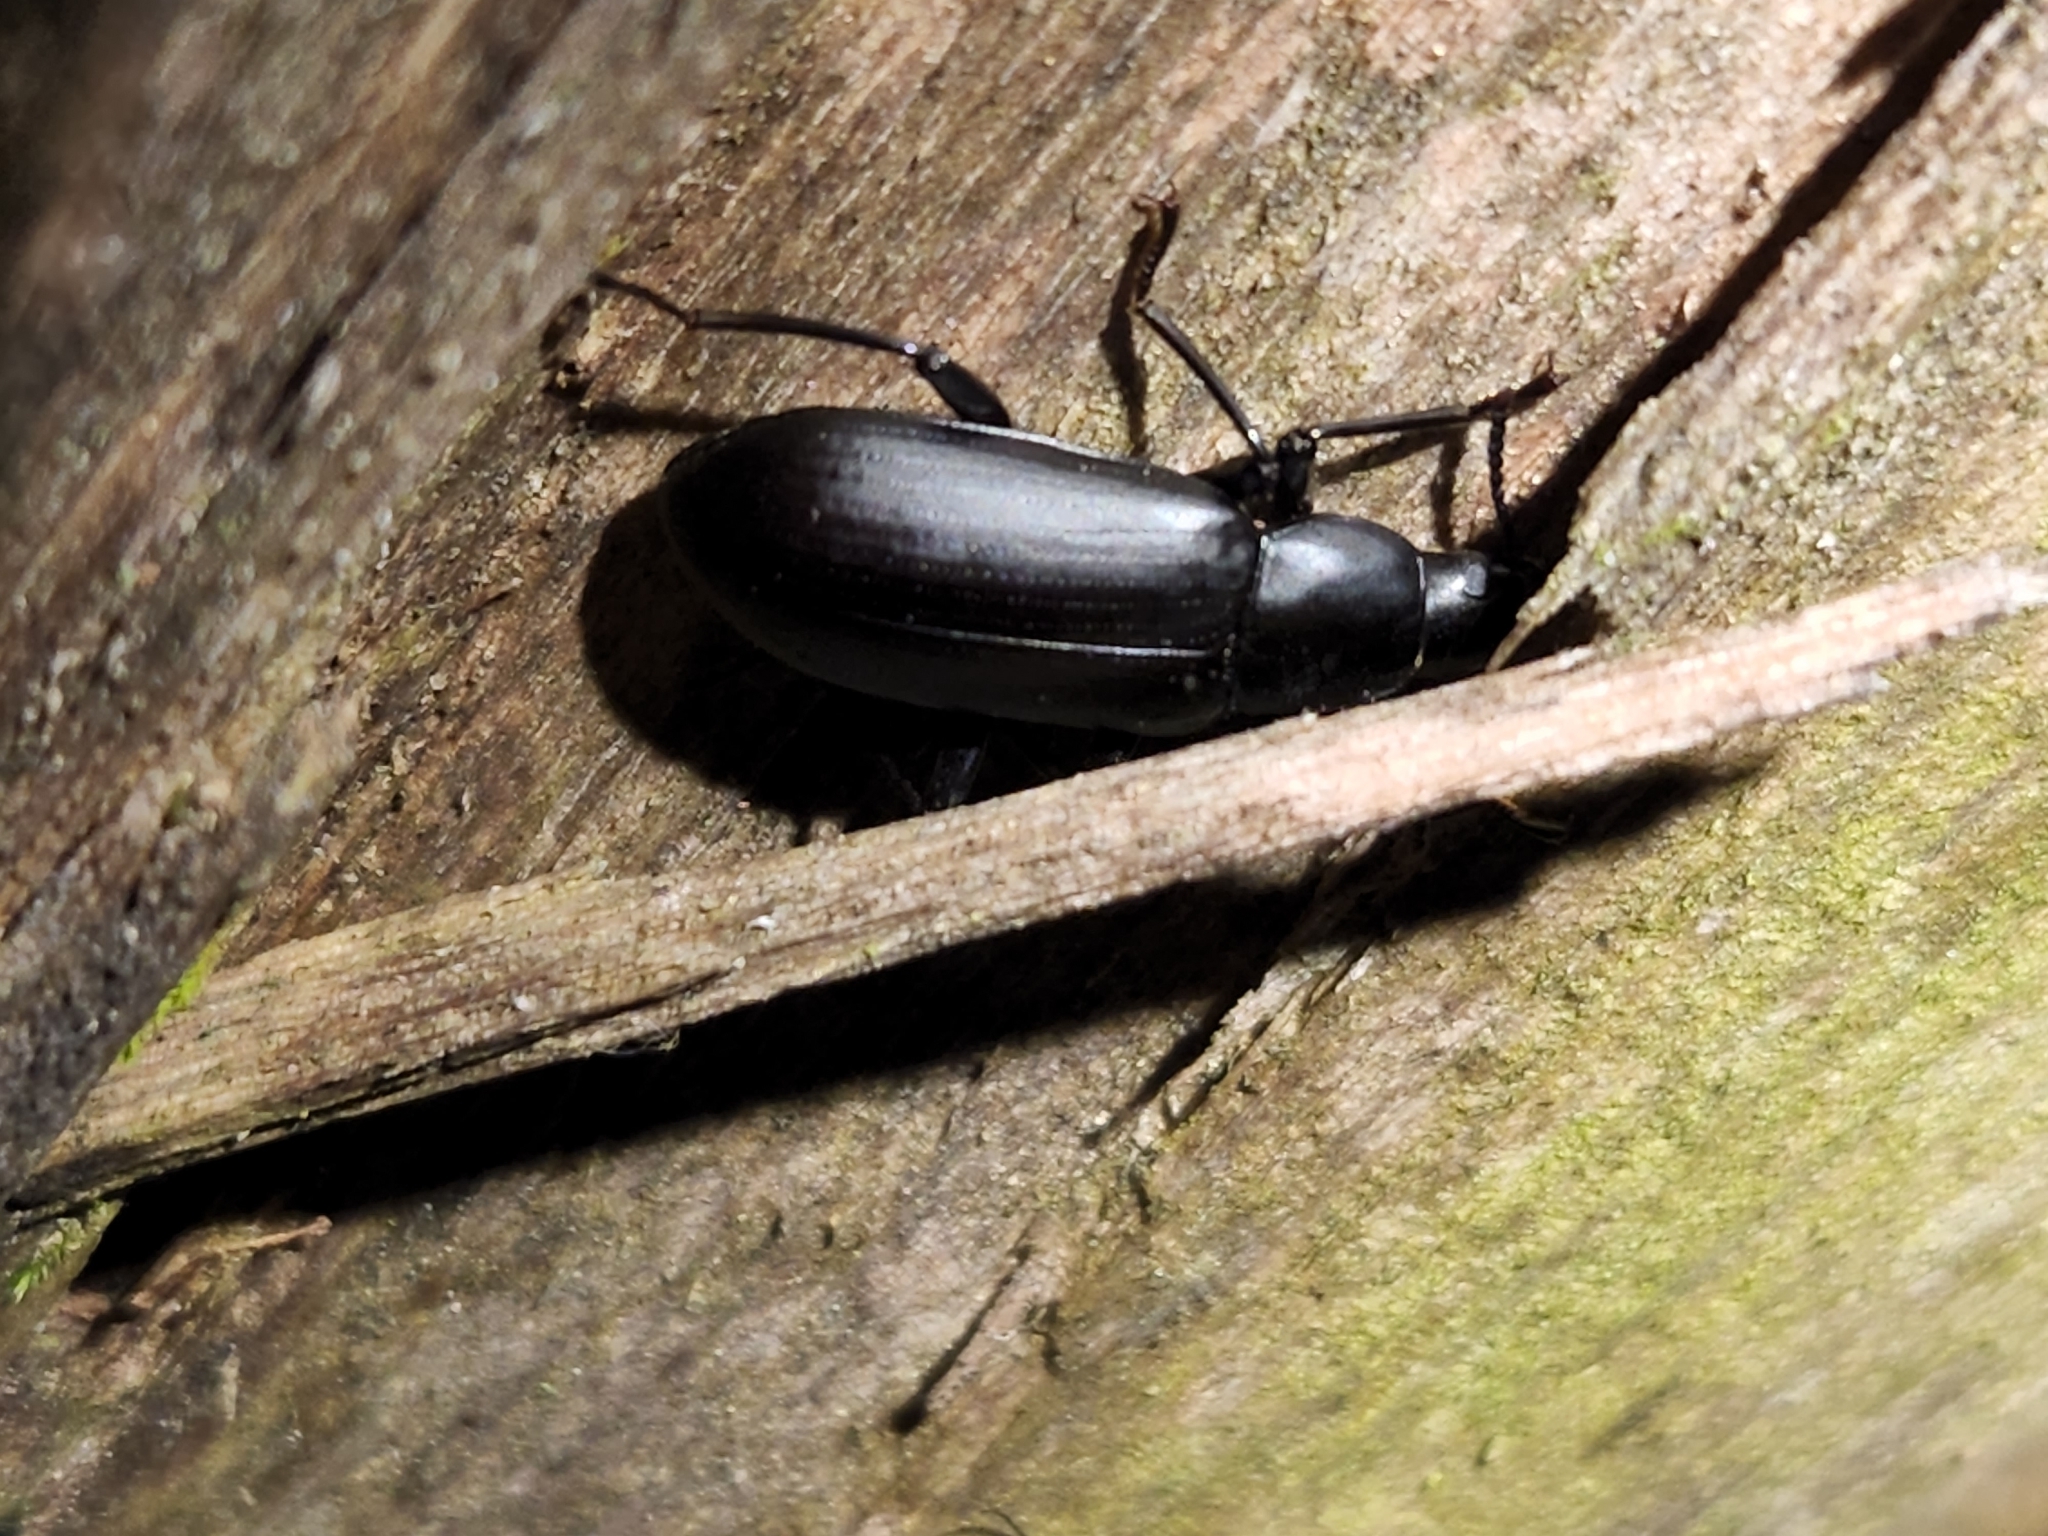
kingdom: Animalia
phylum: Arthropoda
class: Insecta
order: Coleoptera
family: Tenebrionidae
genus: Alobates
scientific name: Alobates pensylvanicus
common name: False mealworm beetle
